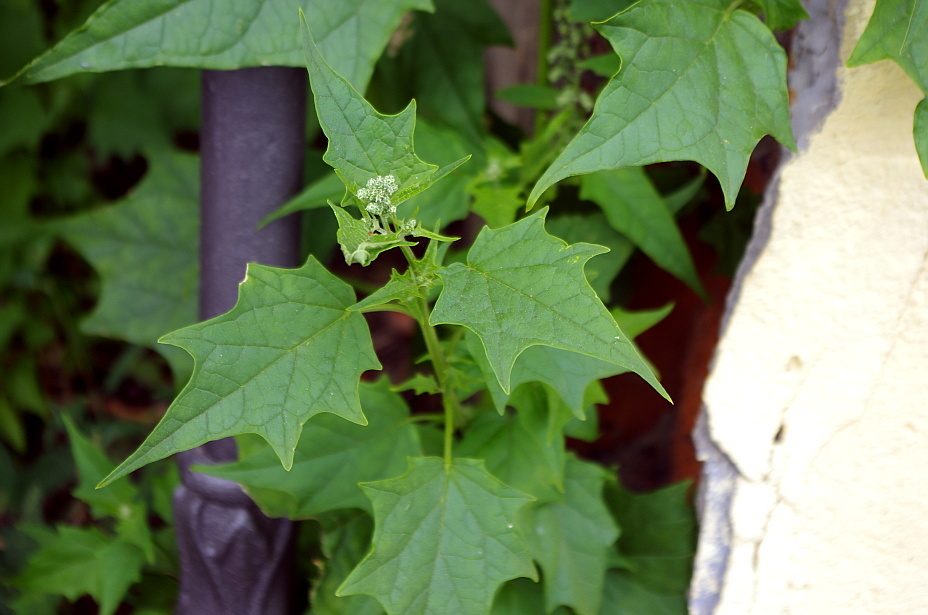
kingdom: Plantae
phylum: Tracheophyta
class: Magnoliopsida
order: Caryophyllales
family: Amaranthaceae
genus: Chenopodiastrum
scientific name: Chenopodiastrum hybridum
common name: Mapleleaf goosefoot
